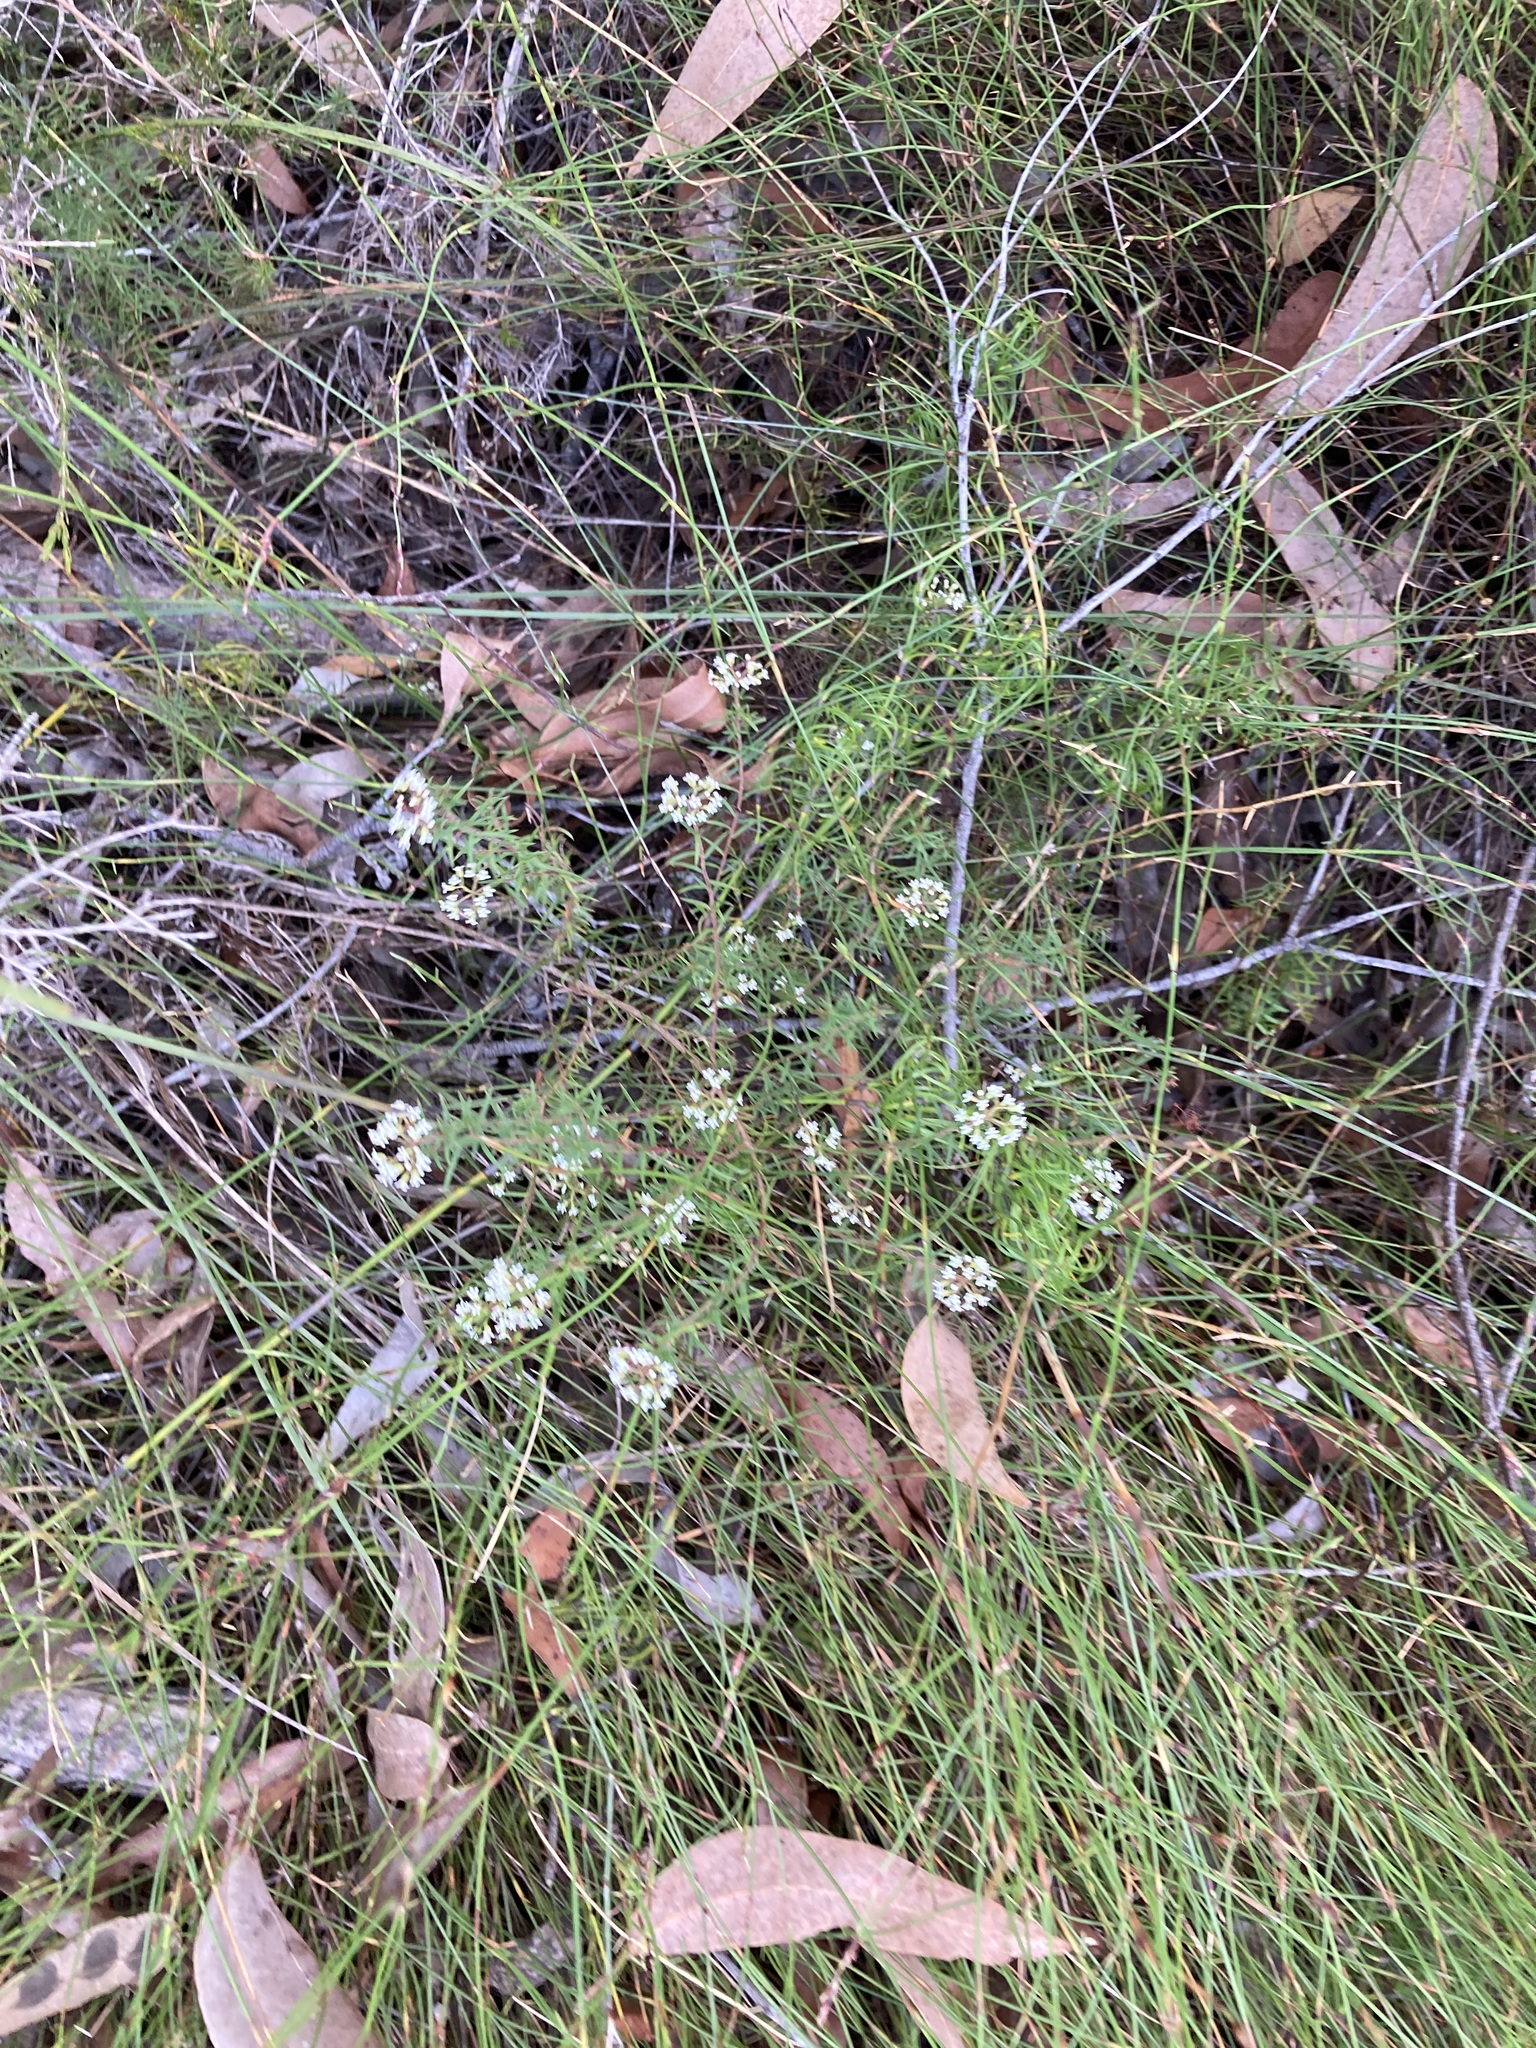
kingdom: Plantae
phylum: Tracheophyta
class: Magnoliopsida
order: Apiales
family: Apiaceae
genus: Platysace
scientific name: Platysace ericoides
